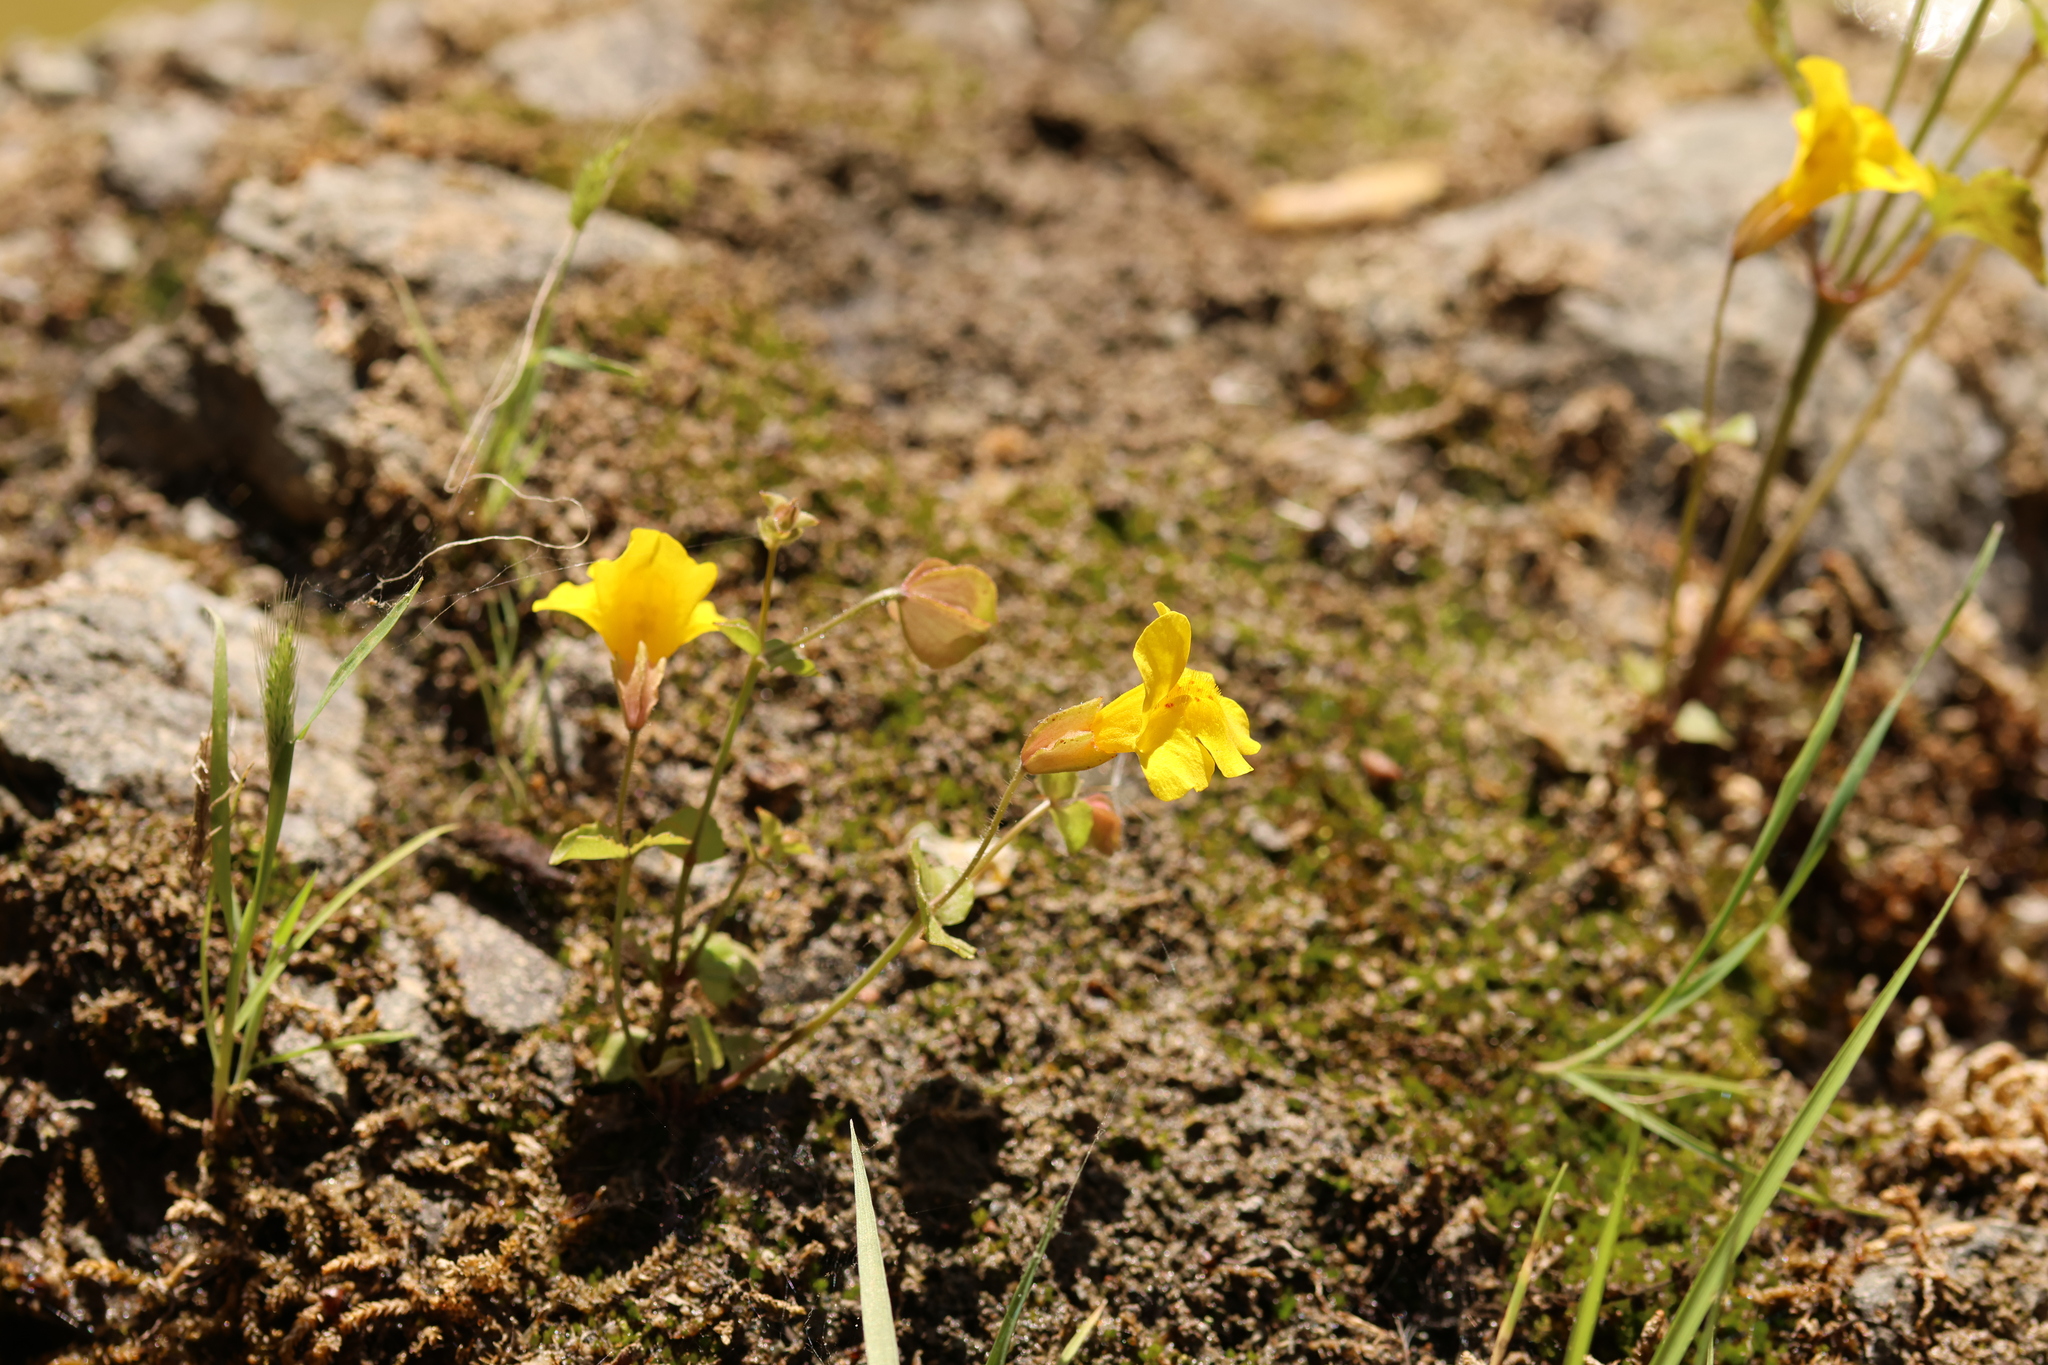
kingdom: Plantae
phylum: Tracheophyta
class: Magnoliopsida
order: Lamiales
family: Phrymaceae
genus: Erythranthe
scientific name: Erythranthe guttata
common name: Monkeyflower
